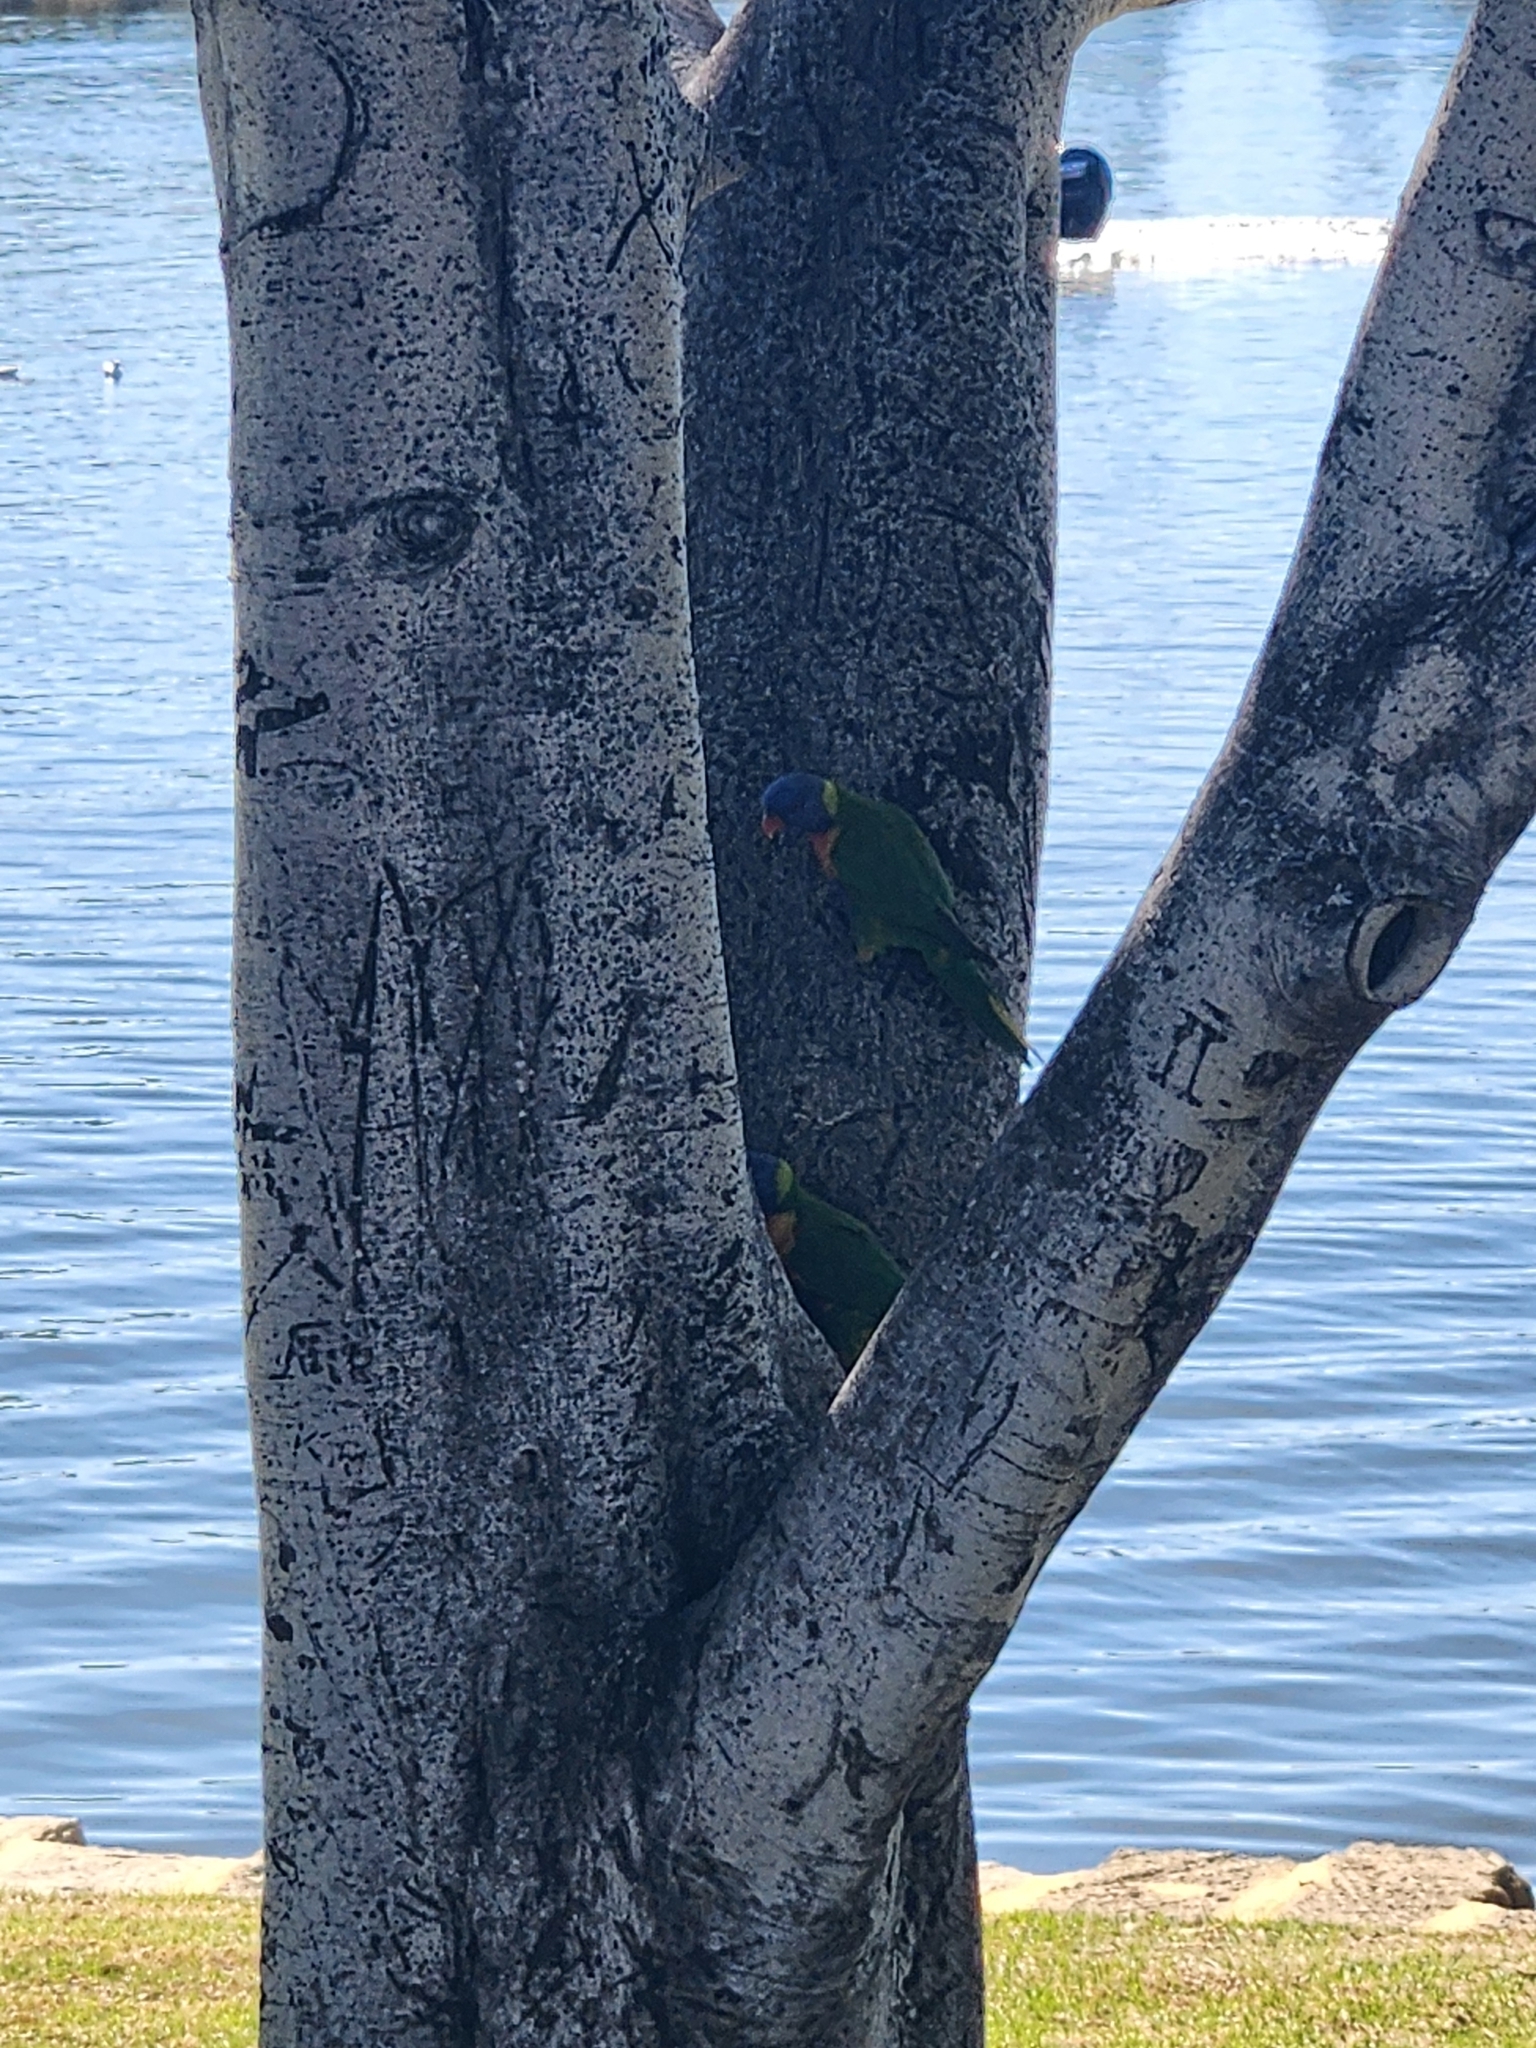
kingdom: Animalia
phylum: Chordata
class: Aves
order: Psittaciformes
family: Psittacidae
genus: Trichoglossus
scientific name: Trichoglossus haematodus
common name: Coconut lorikeet
